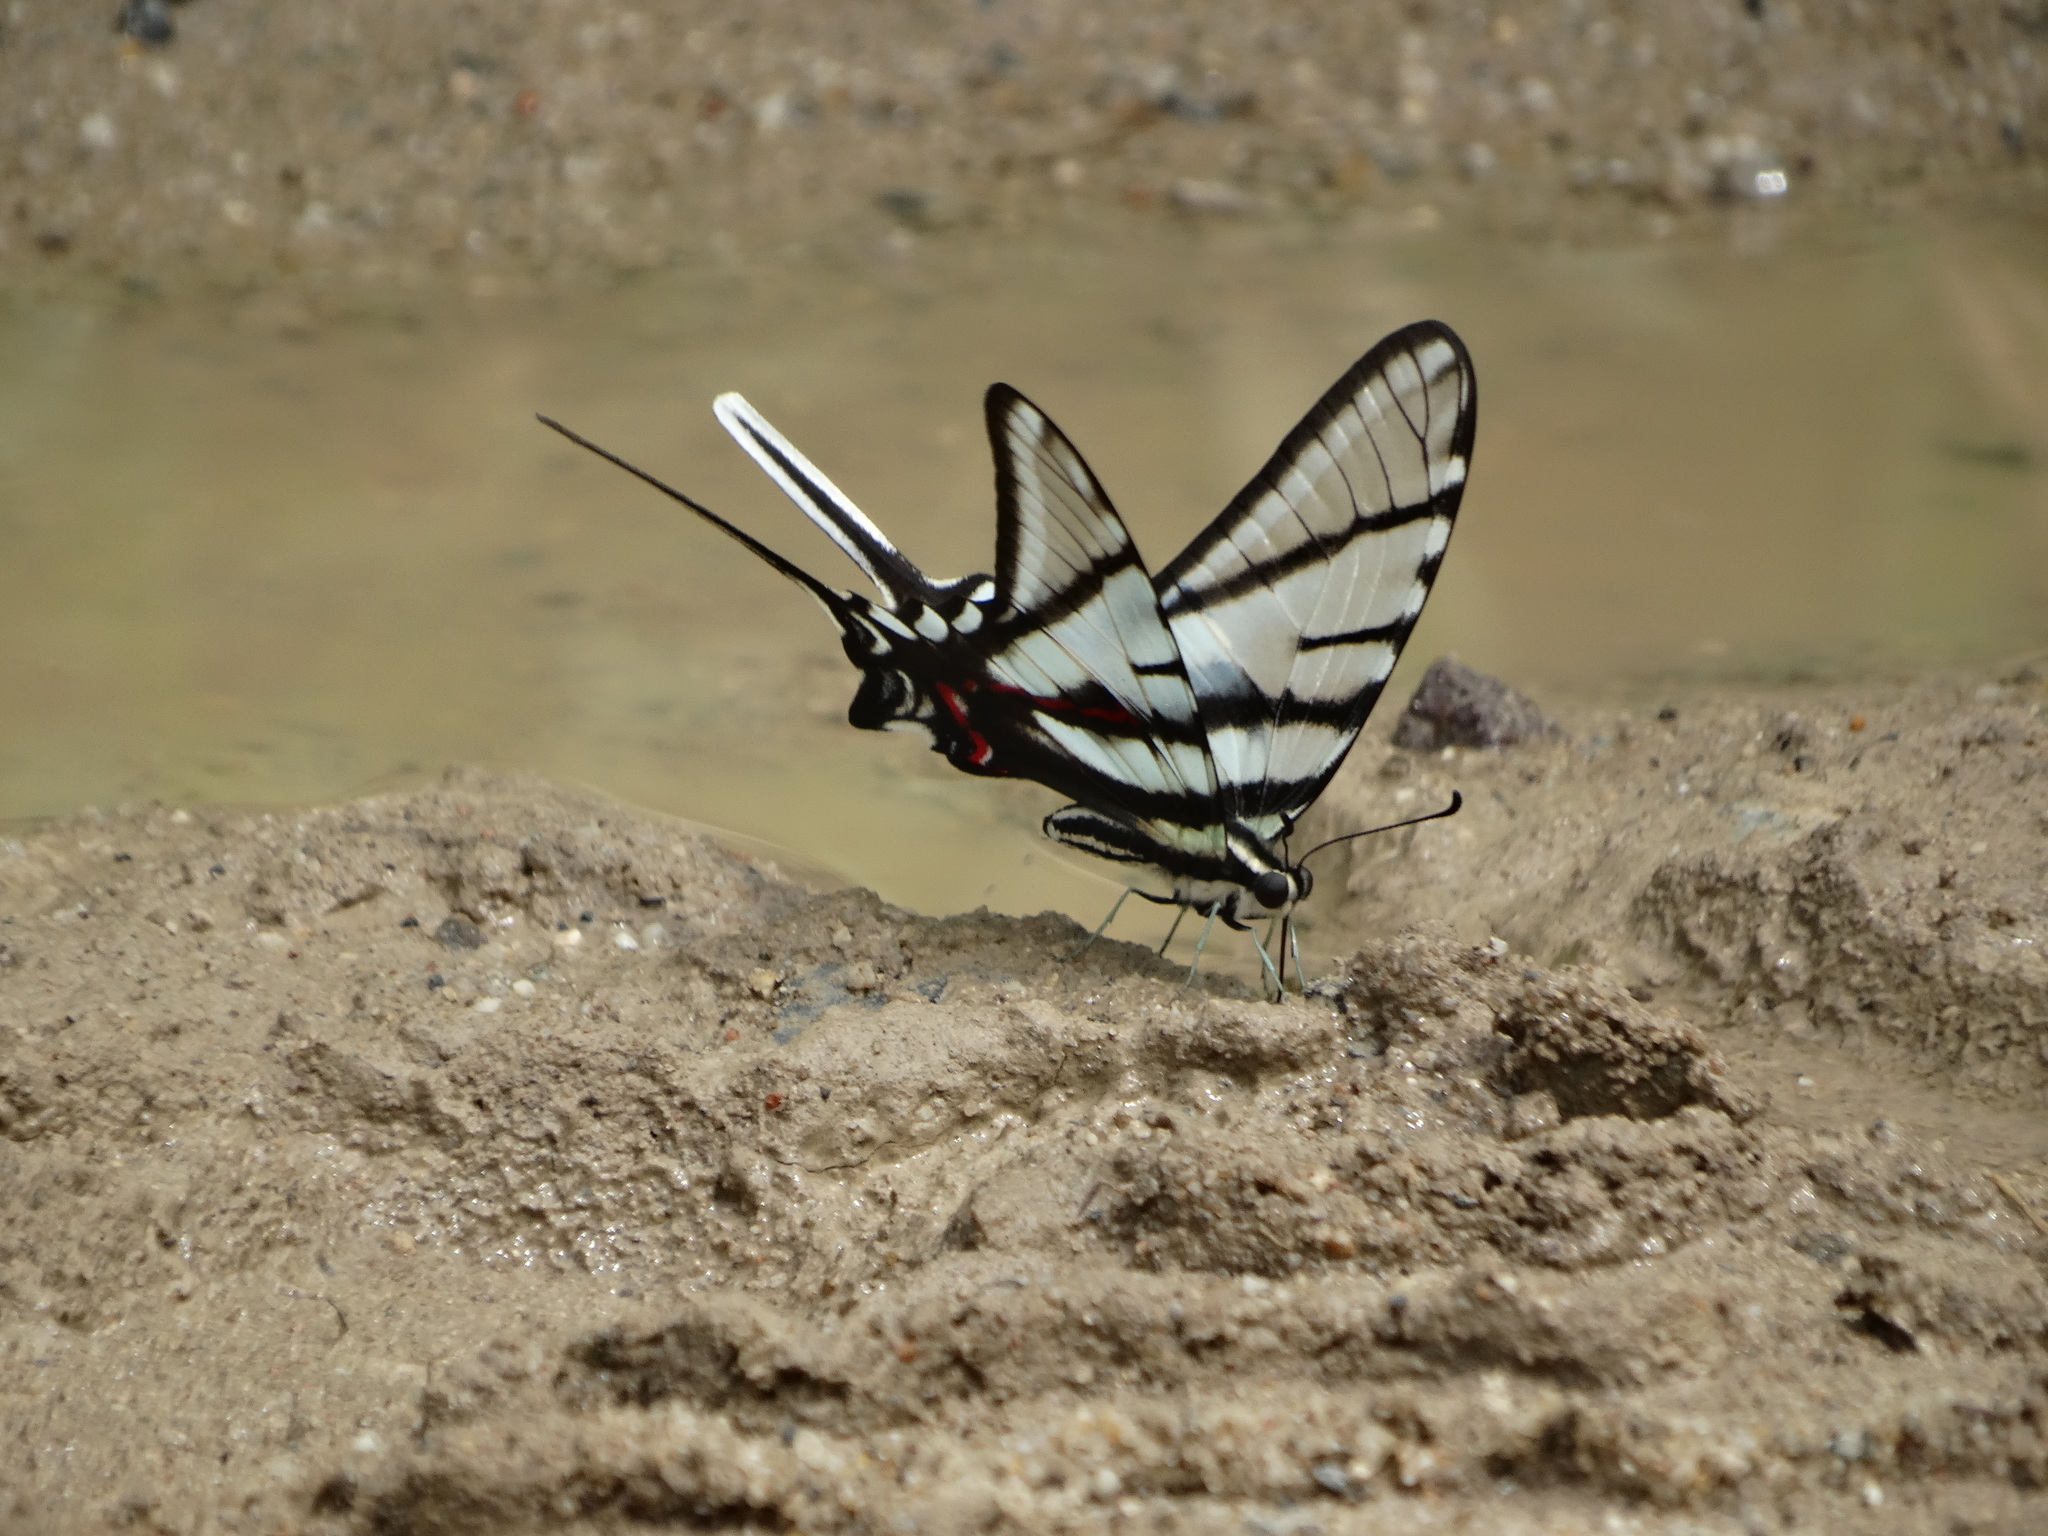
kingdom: Animalia
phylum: Arthropoda
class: Insecta
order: Lepidoptera
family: Papilionidae
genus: Protographium
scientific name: Protographium epidaus
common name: Mexican kite swallowtail
